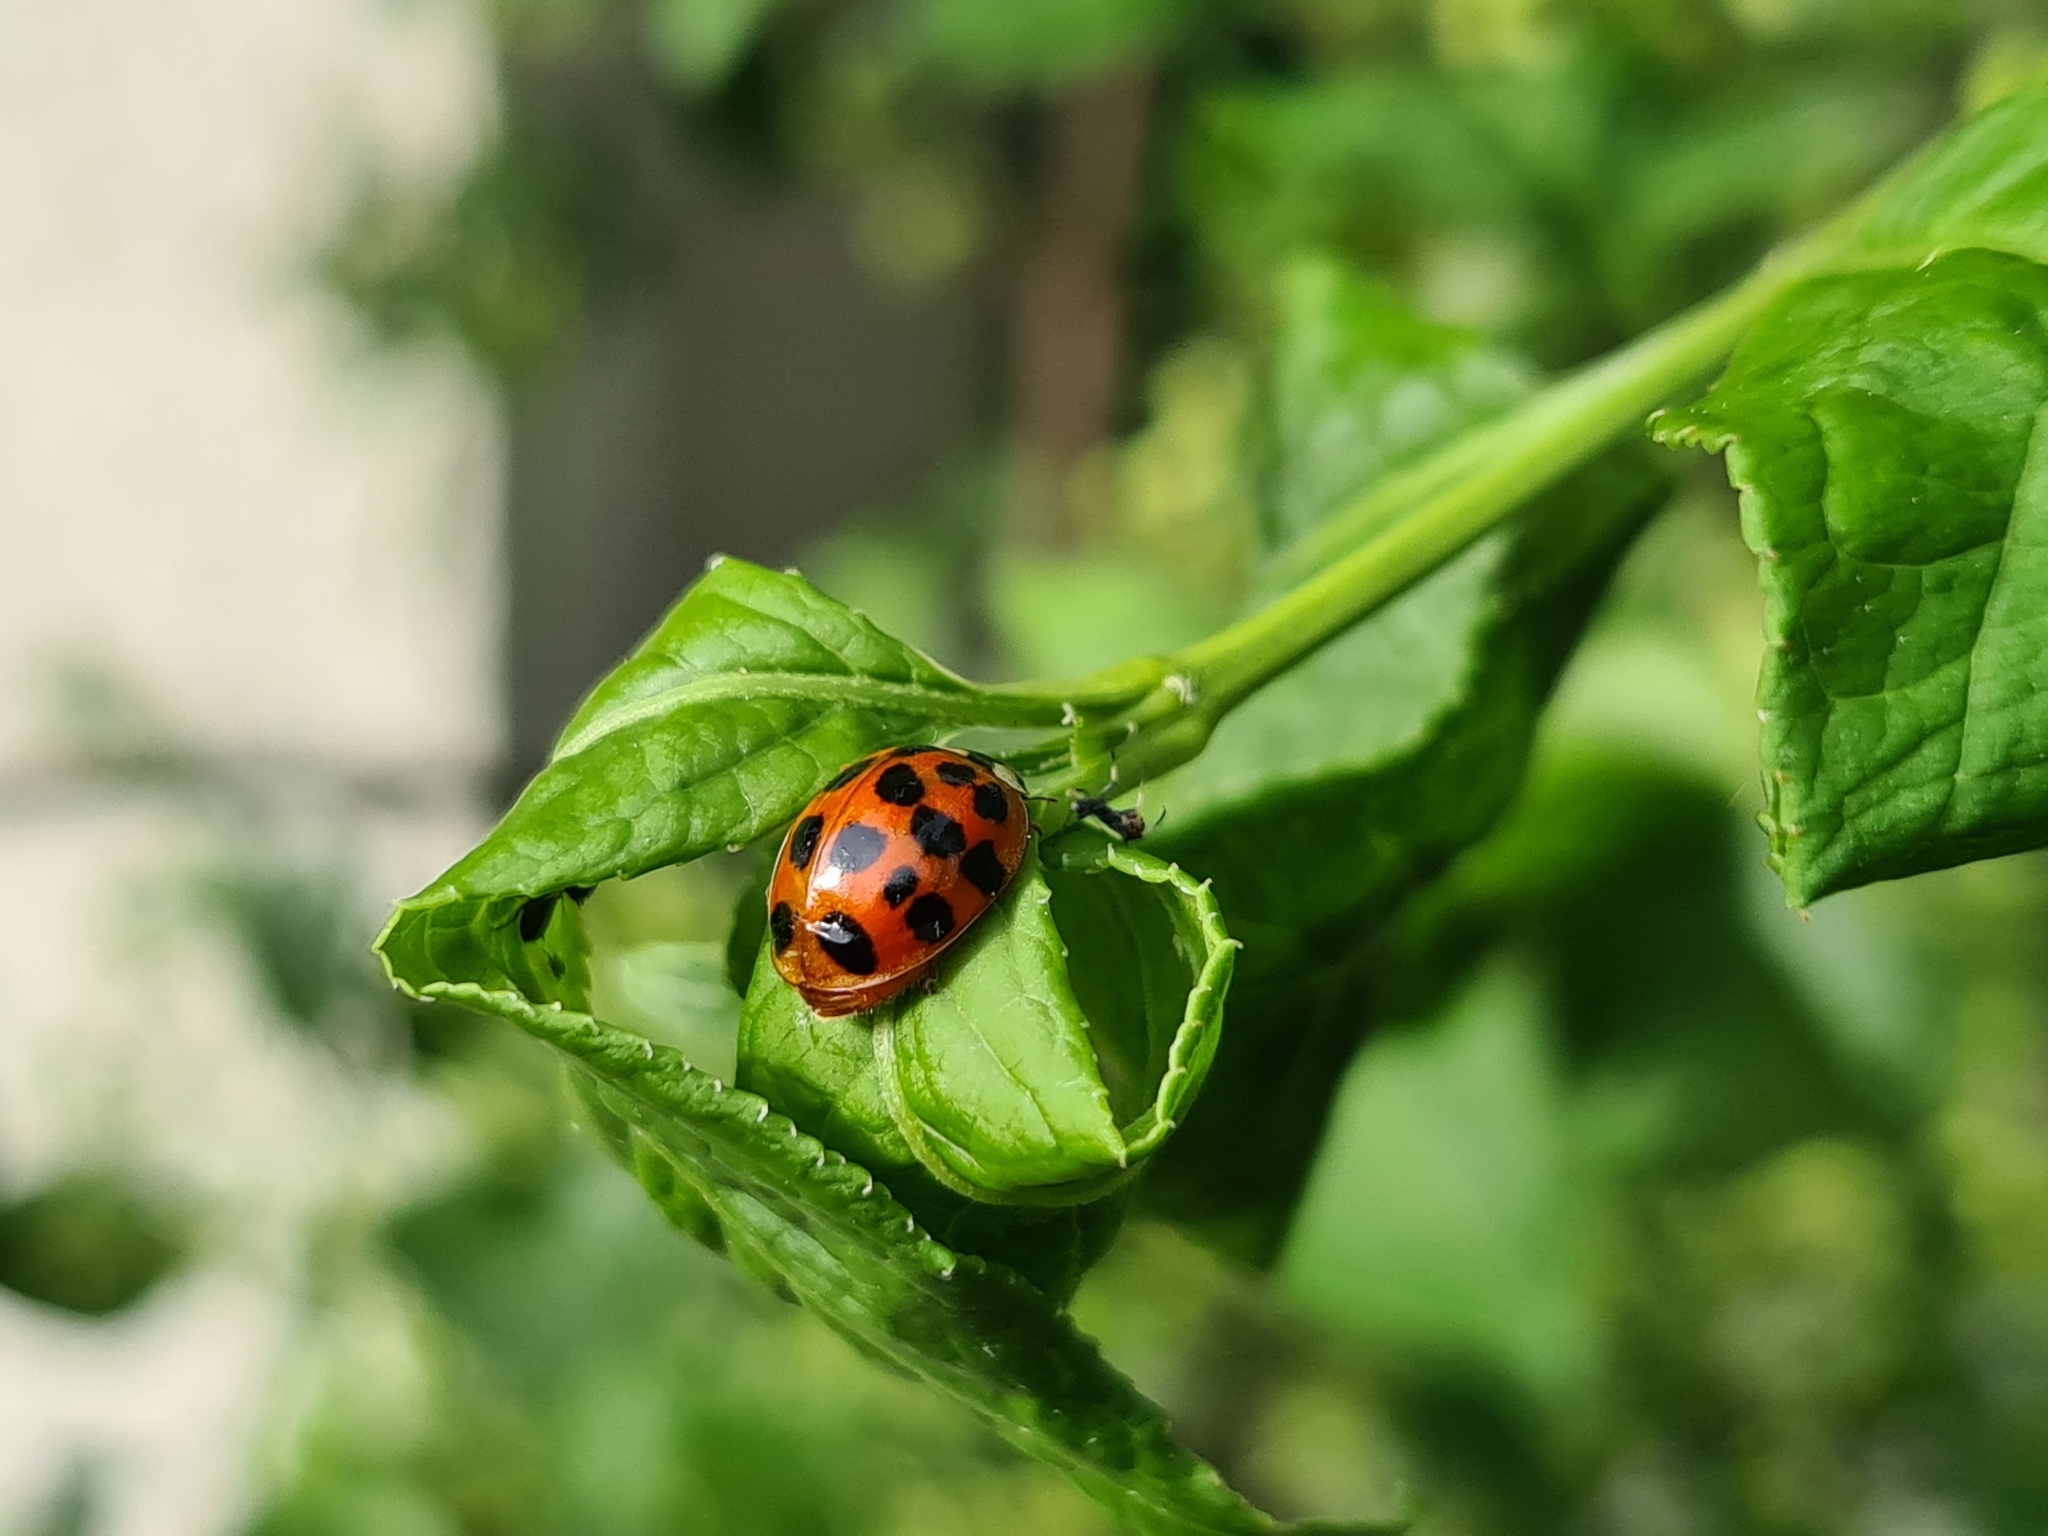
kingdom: Animalia
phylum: Arthropoda
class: Insecta
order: Coleoptera
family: Coccinellidae
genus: Harmonia
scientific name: Harmonia axyridis
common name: Harlequin ladybird
